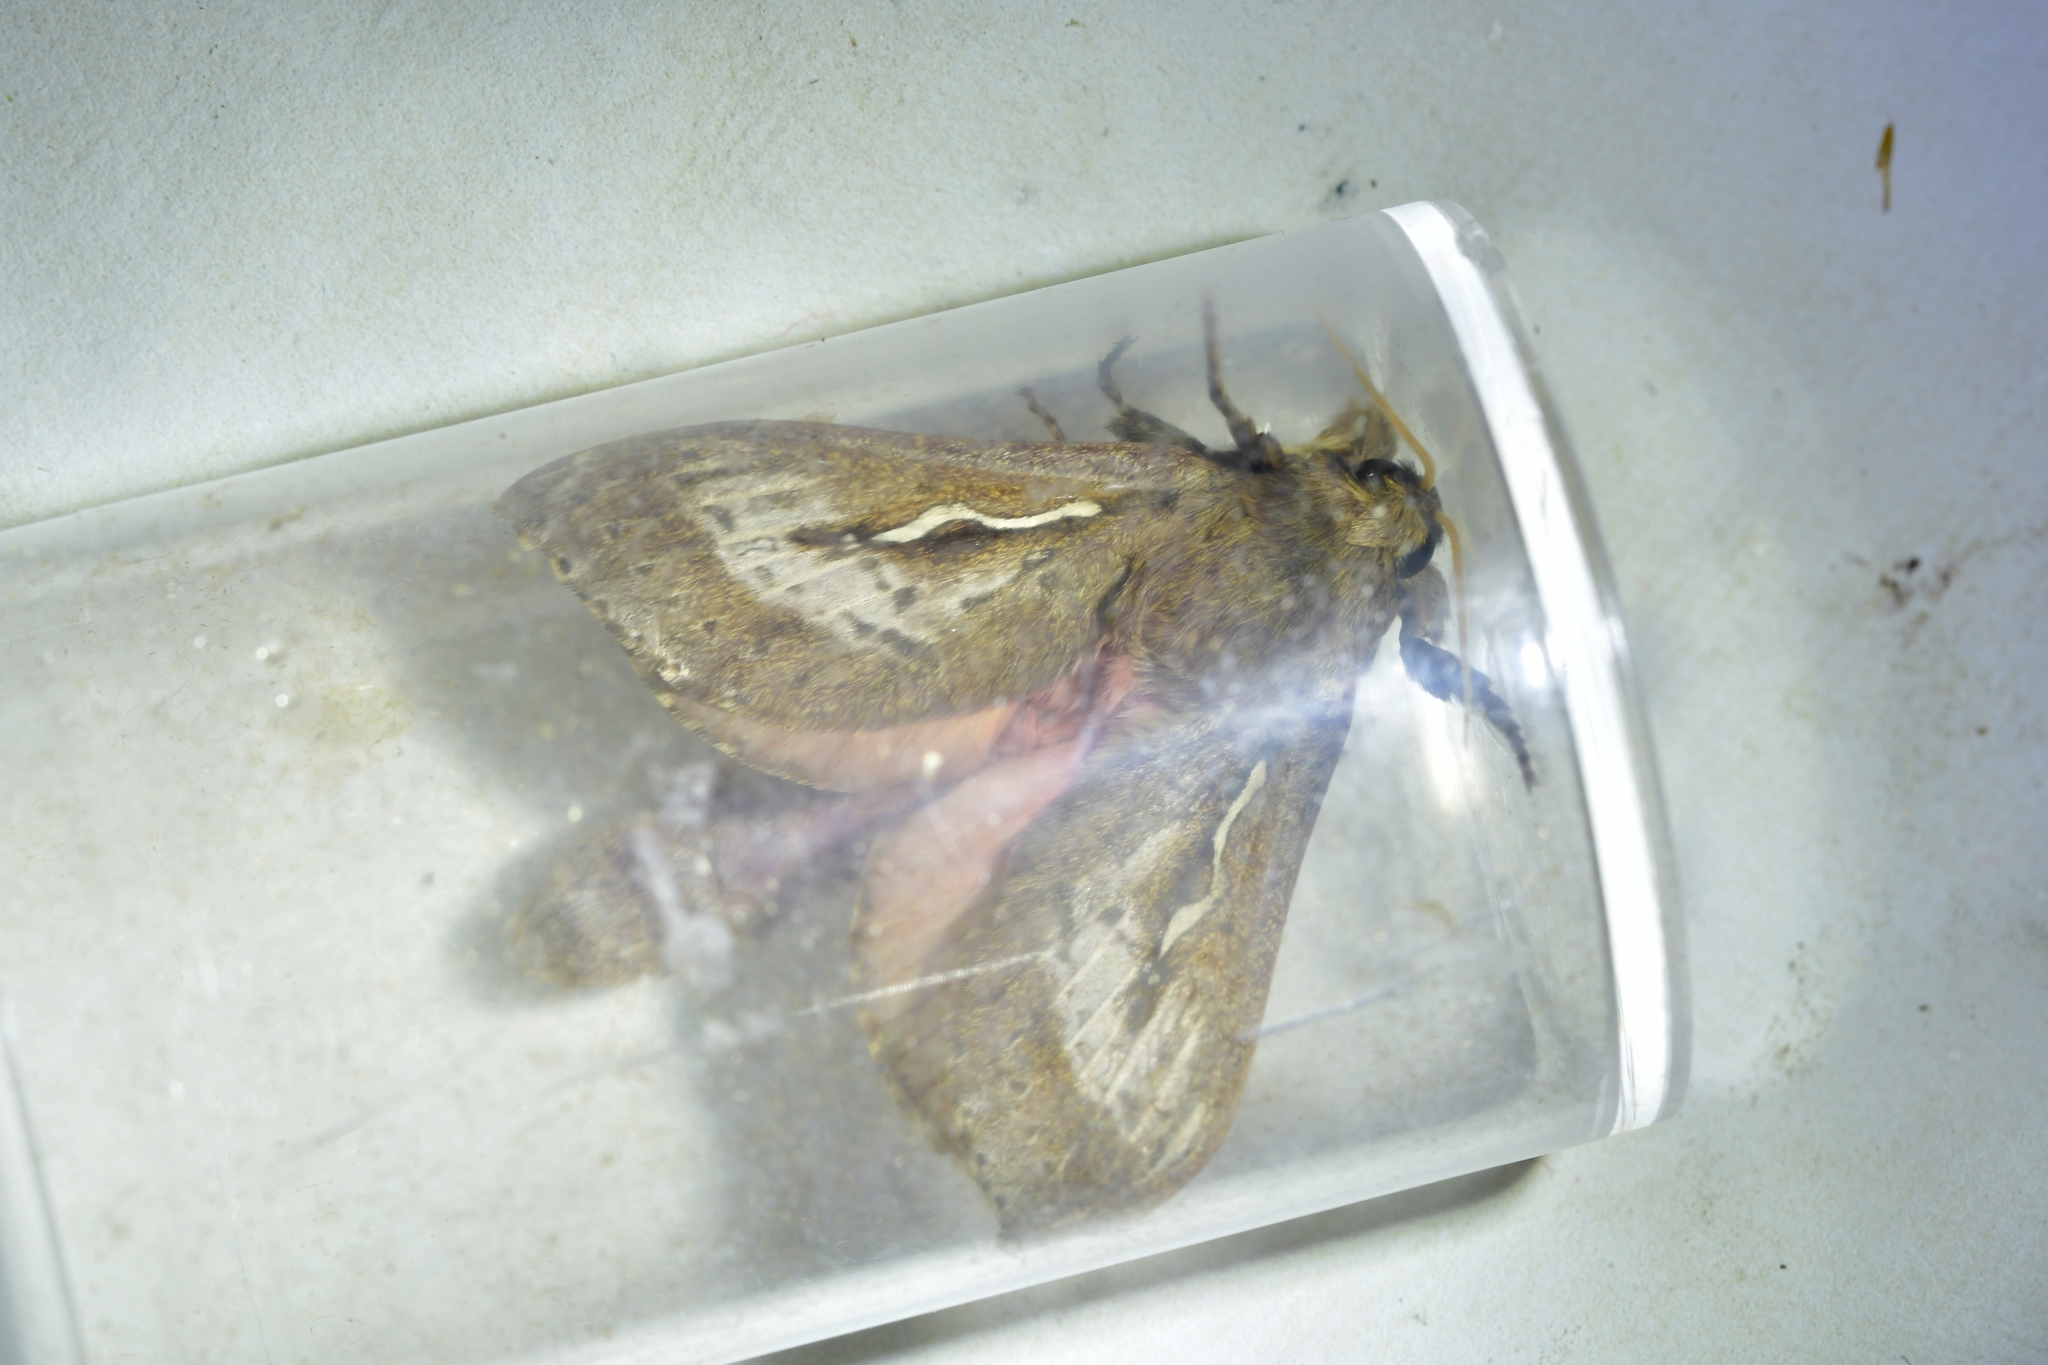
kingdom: Animalia
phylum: Arthropoda
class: Insecta
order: Lepidoptera
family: Hepialidae
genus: Wiseana
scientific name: Wiseana cervinata
